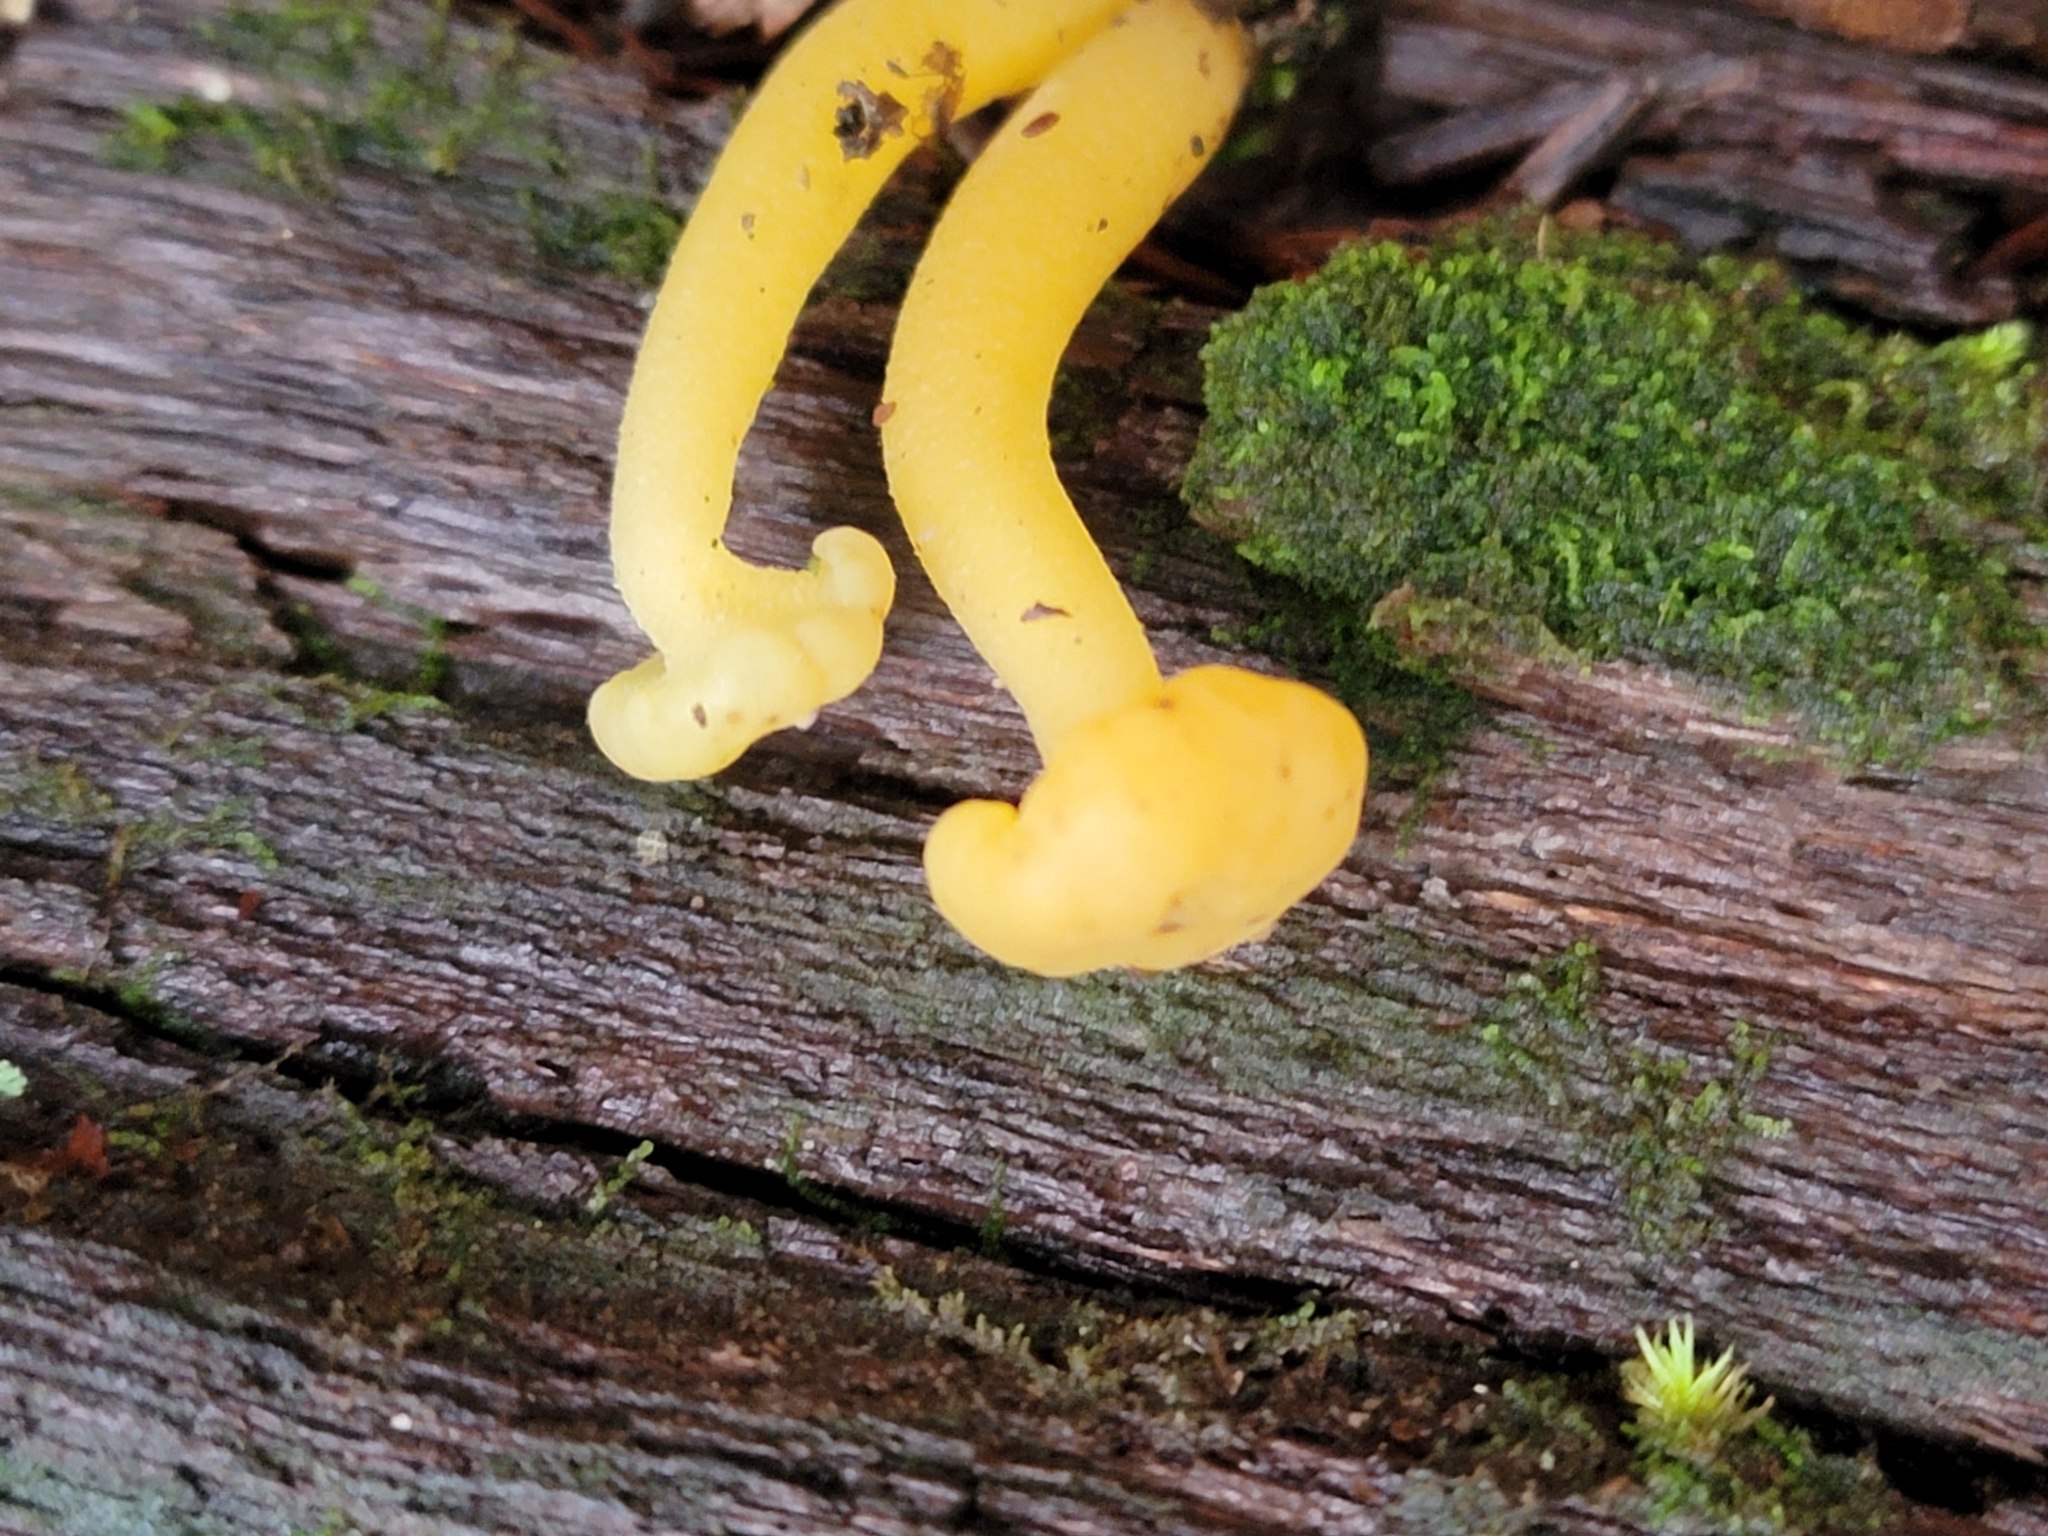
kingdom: Fungi
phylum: Ascomycota
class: Leotiomycetes
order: Leotiales
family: Leotiaceae
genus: Leotia
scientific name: Leotia lubrica
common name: Jellybaby
